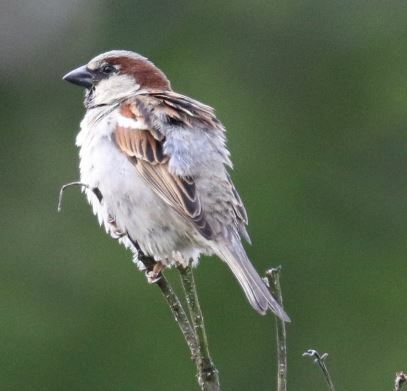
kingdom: Animalia
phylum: Chordata
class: Aves
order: Passeriformes
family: Passeridae
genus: Passer
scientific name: Passer domesticus
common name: House sparrow
